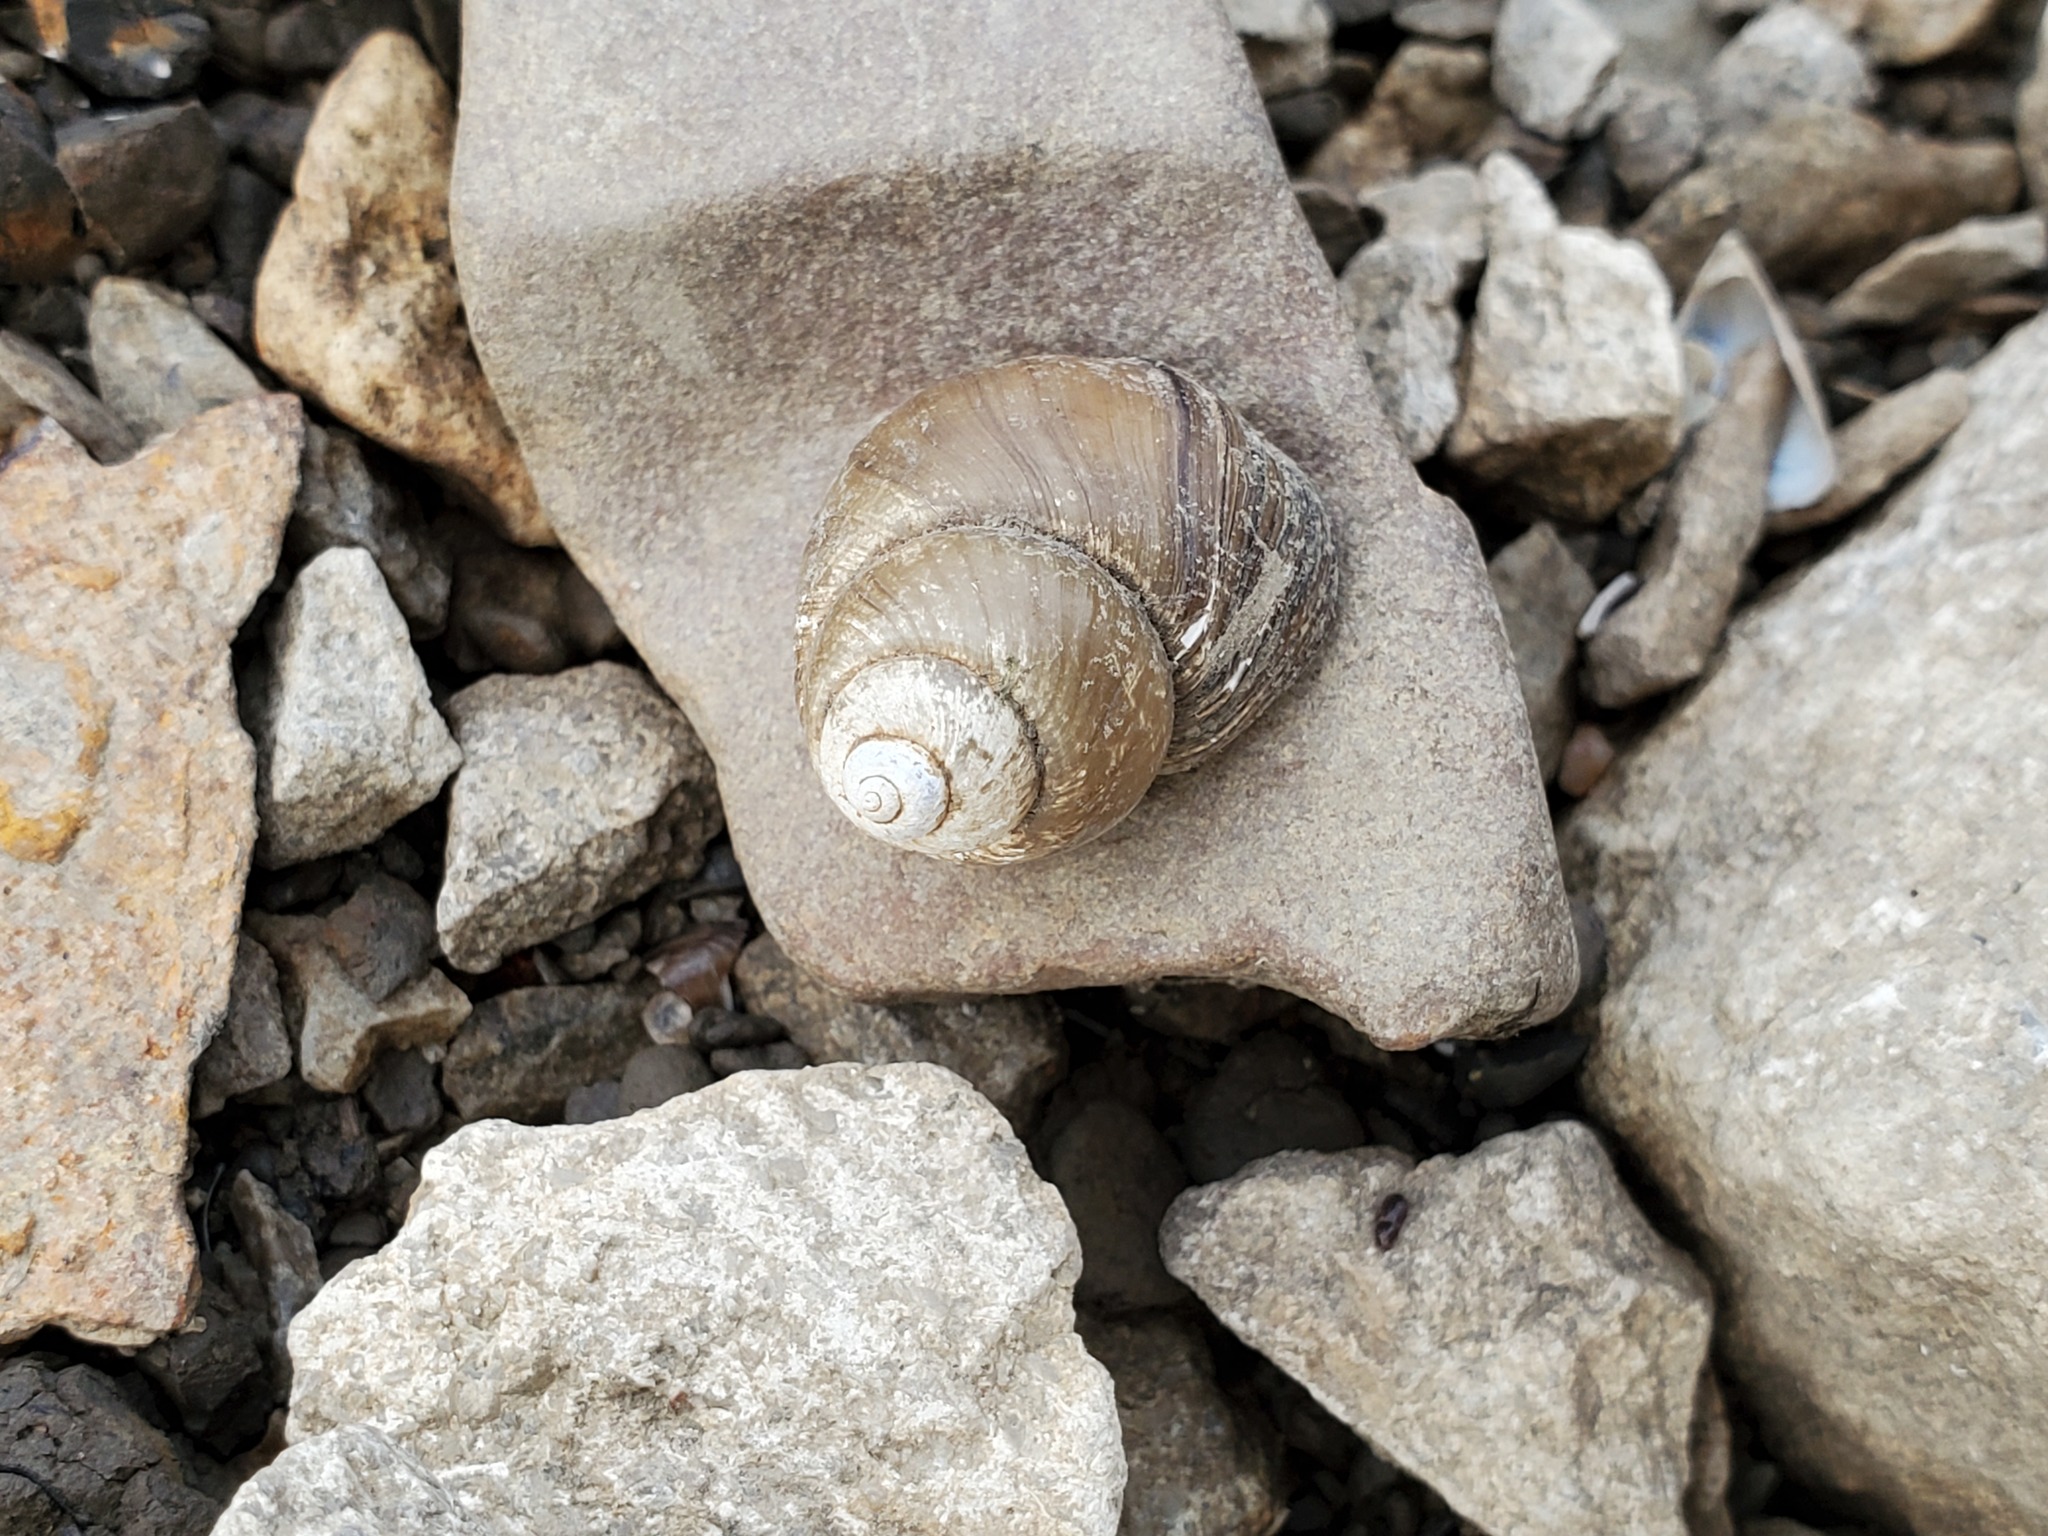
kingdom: Animalia
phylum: Mollusca
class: Gastropoda
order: Architaenioglossa
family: Viviparidae
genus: Cipangopaludina
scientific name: Cipangopaludina chinensis
